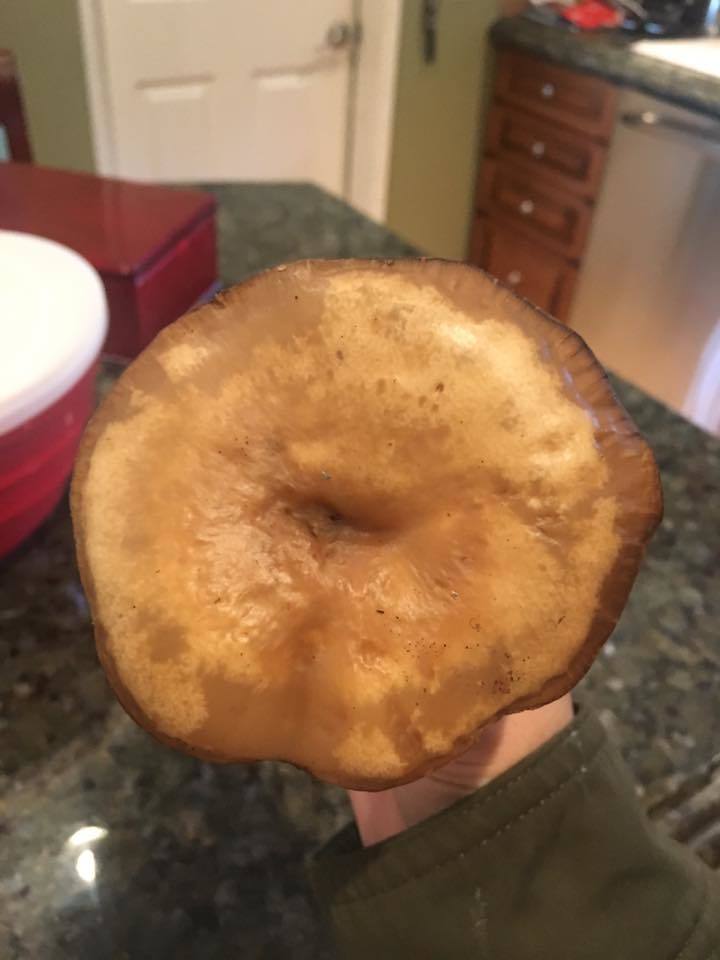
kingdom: Fungi
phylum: Basidiomycota
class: Agaricomycetes
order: Agaricales
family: Tricholomataceae
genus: Collybia
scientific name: Collybia
